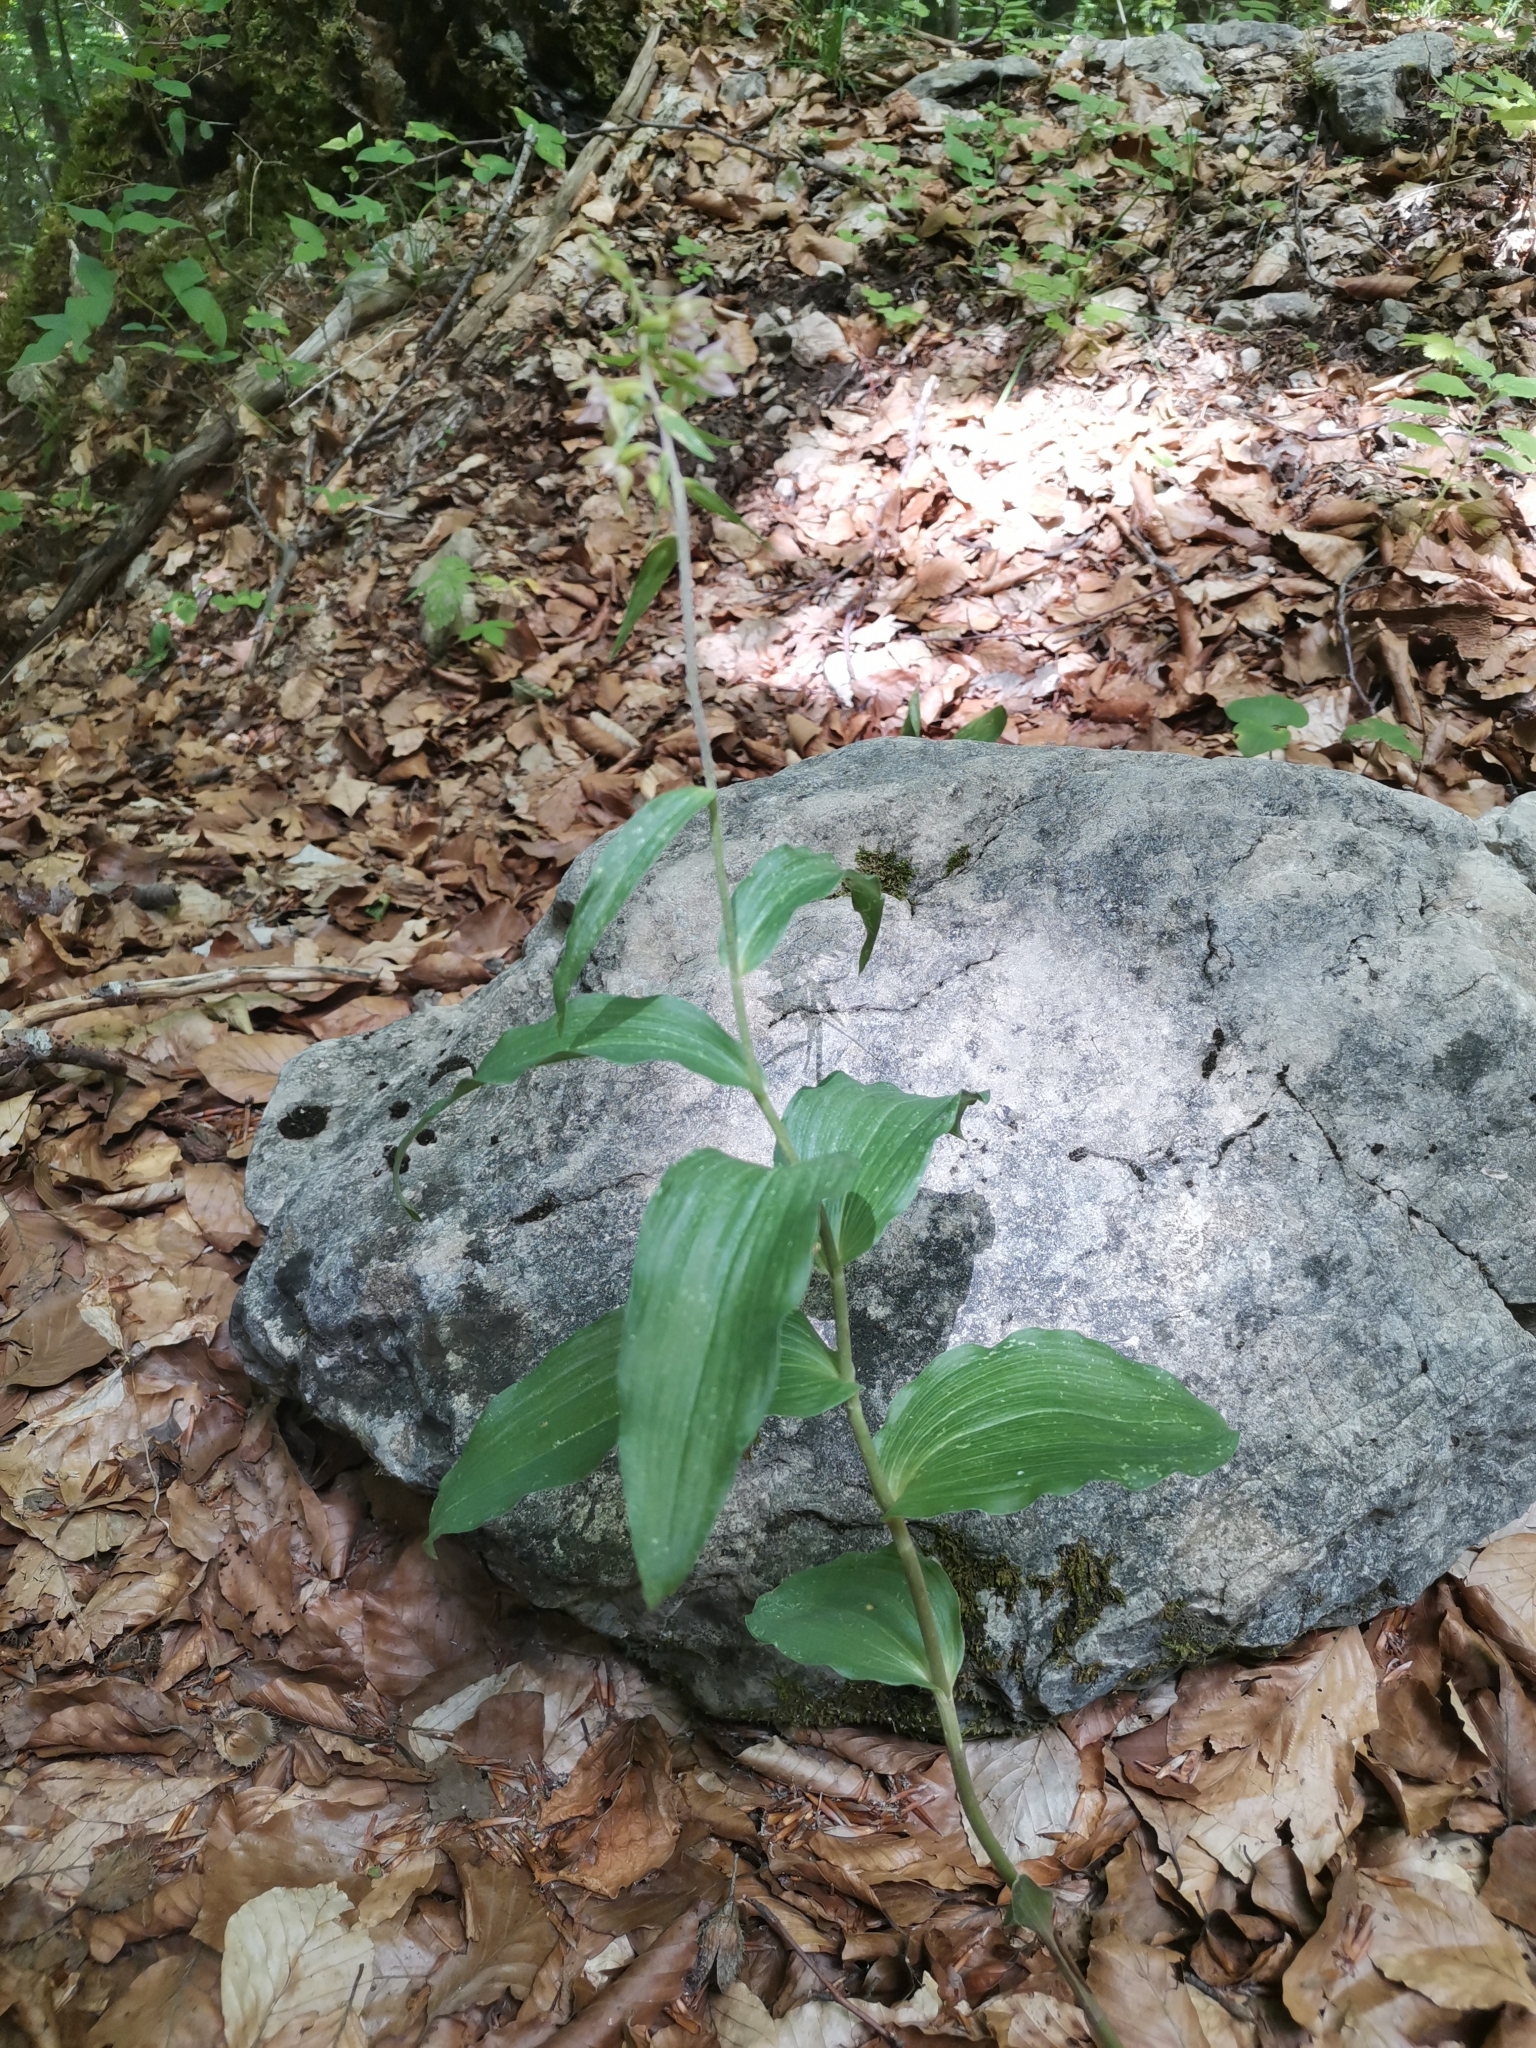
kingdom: Plantae
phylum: Tracheophyta
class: Liliopsida
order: Asparagales
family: Orchidaceae
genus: Epipactis
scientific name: Epipactis helleborine
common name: Broad-leaved helleborine
